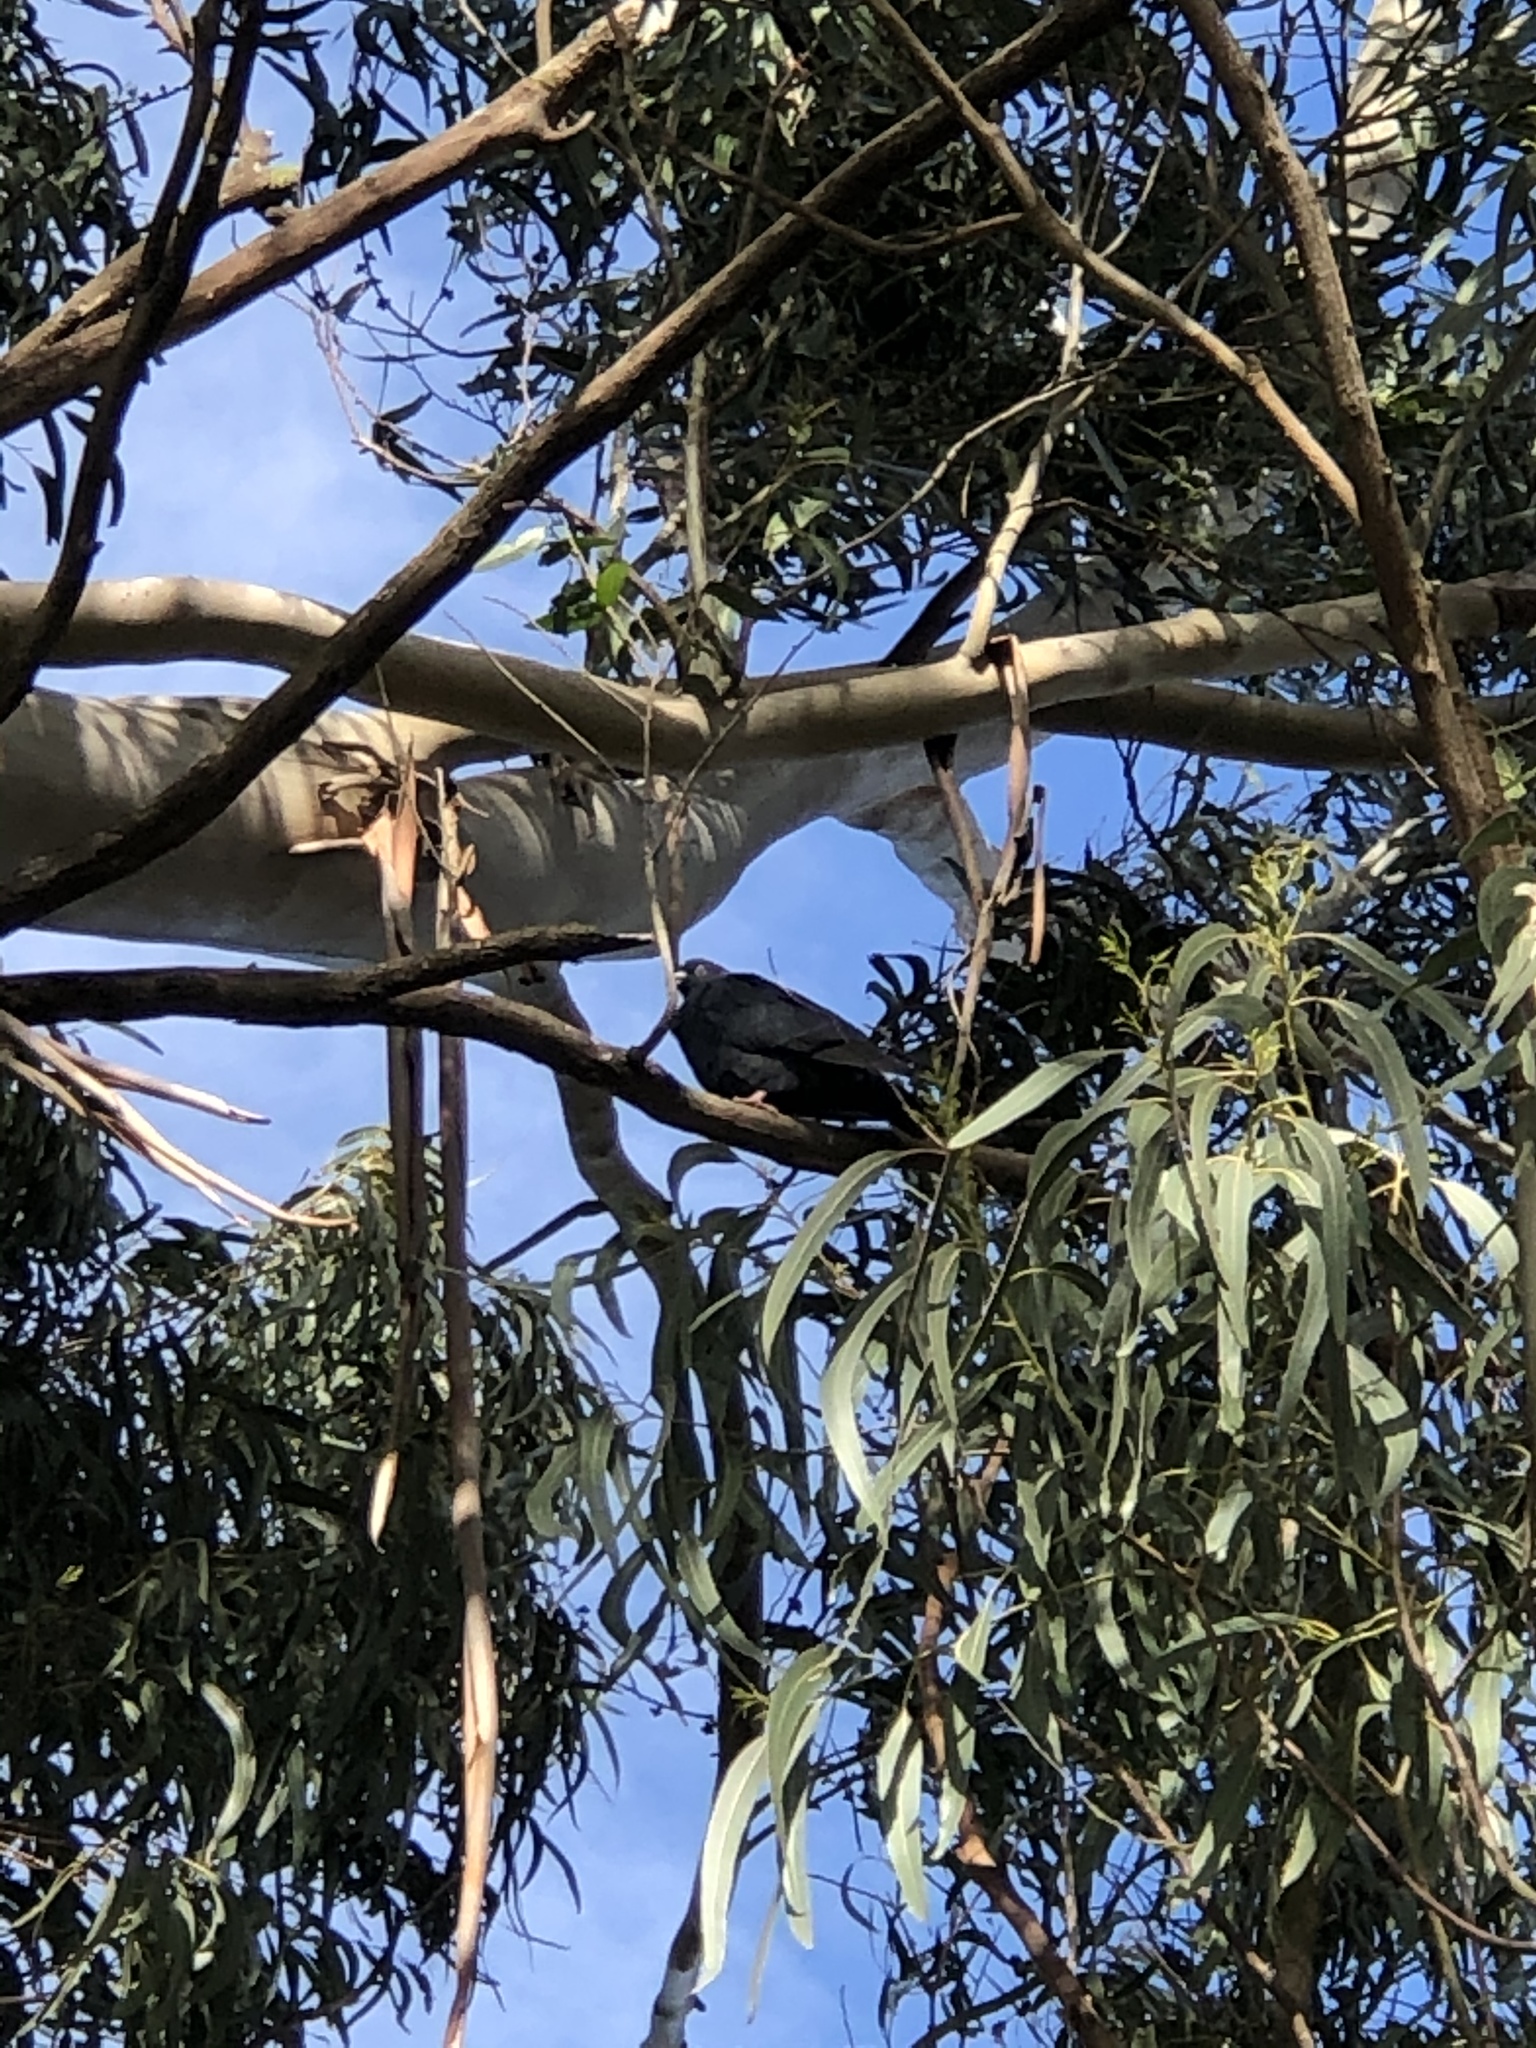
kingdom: Animalia
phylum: Chordata
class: Aves
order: Columbiformes
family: Columbidae
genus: Columba
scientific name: Columba livia
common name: Rock pigeon
